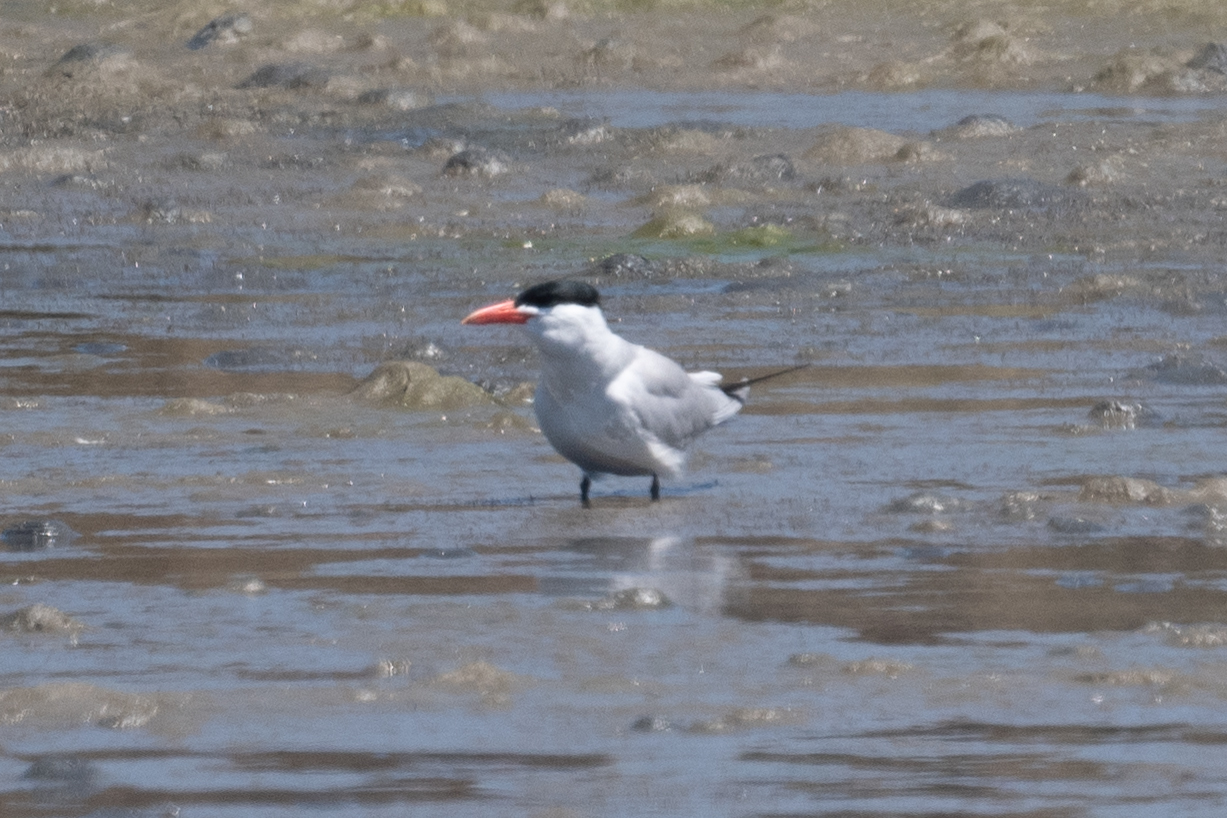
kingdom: Animalia
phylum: Chordata
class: Aves
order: Charadriiformes
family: Laridae
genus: Hydroprogne
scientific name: Hydroprogne caspia
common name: Caspian tern
